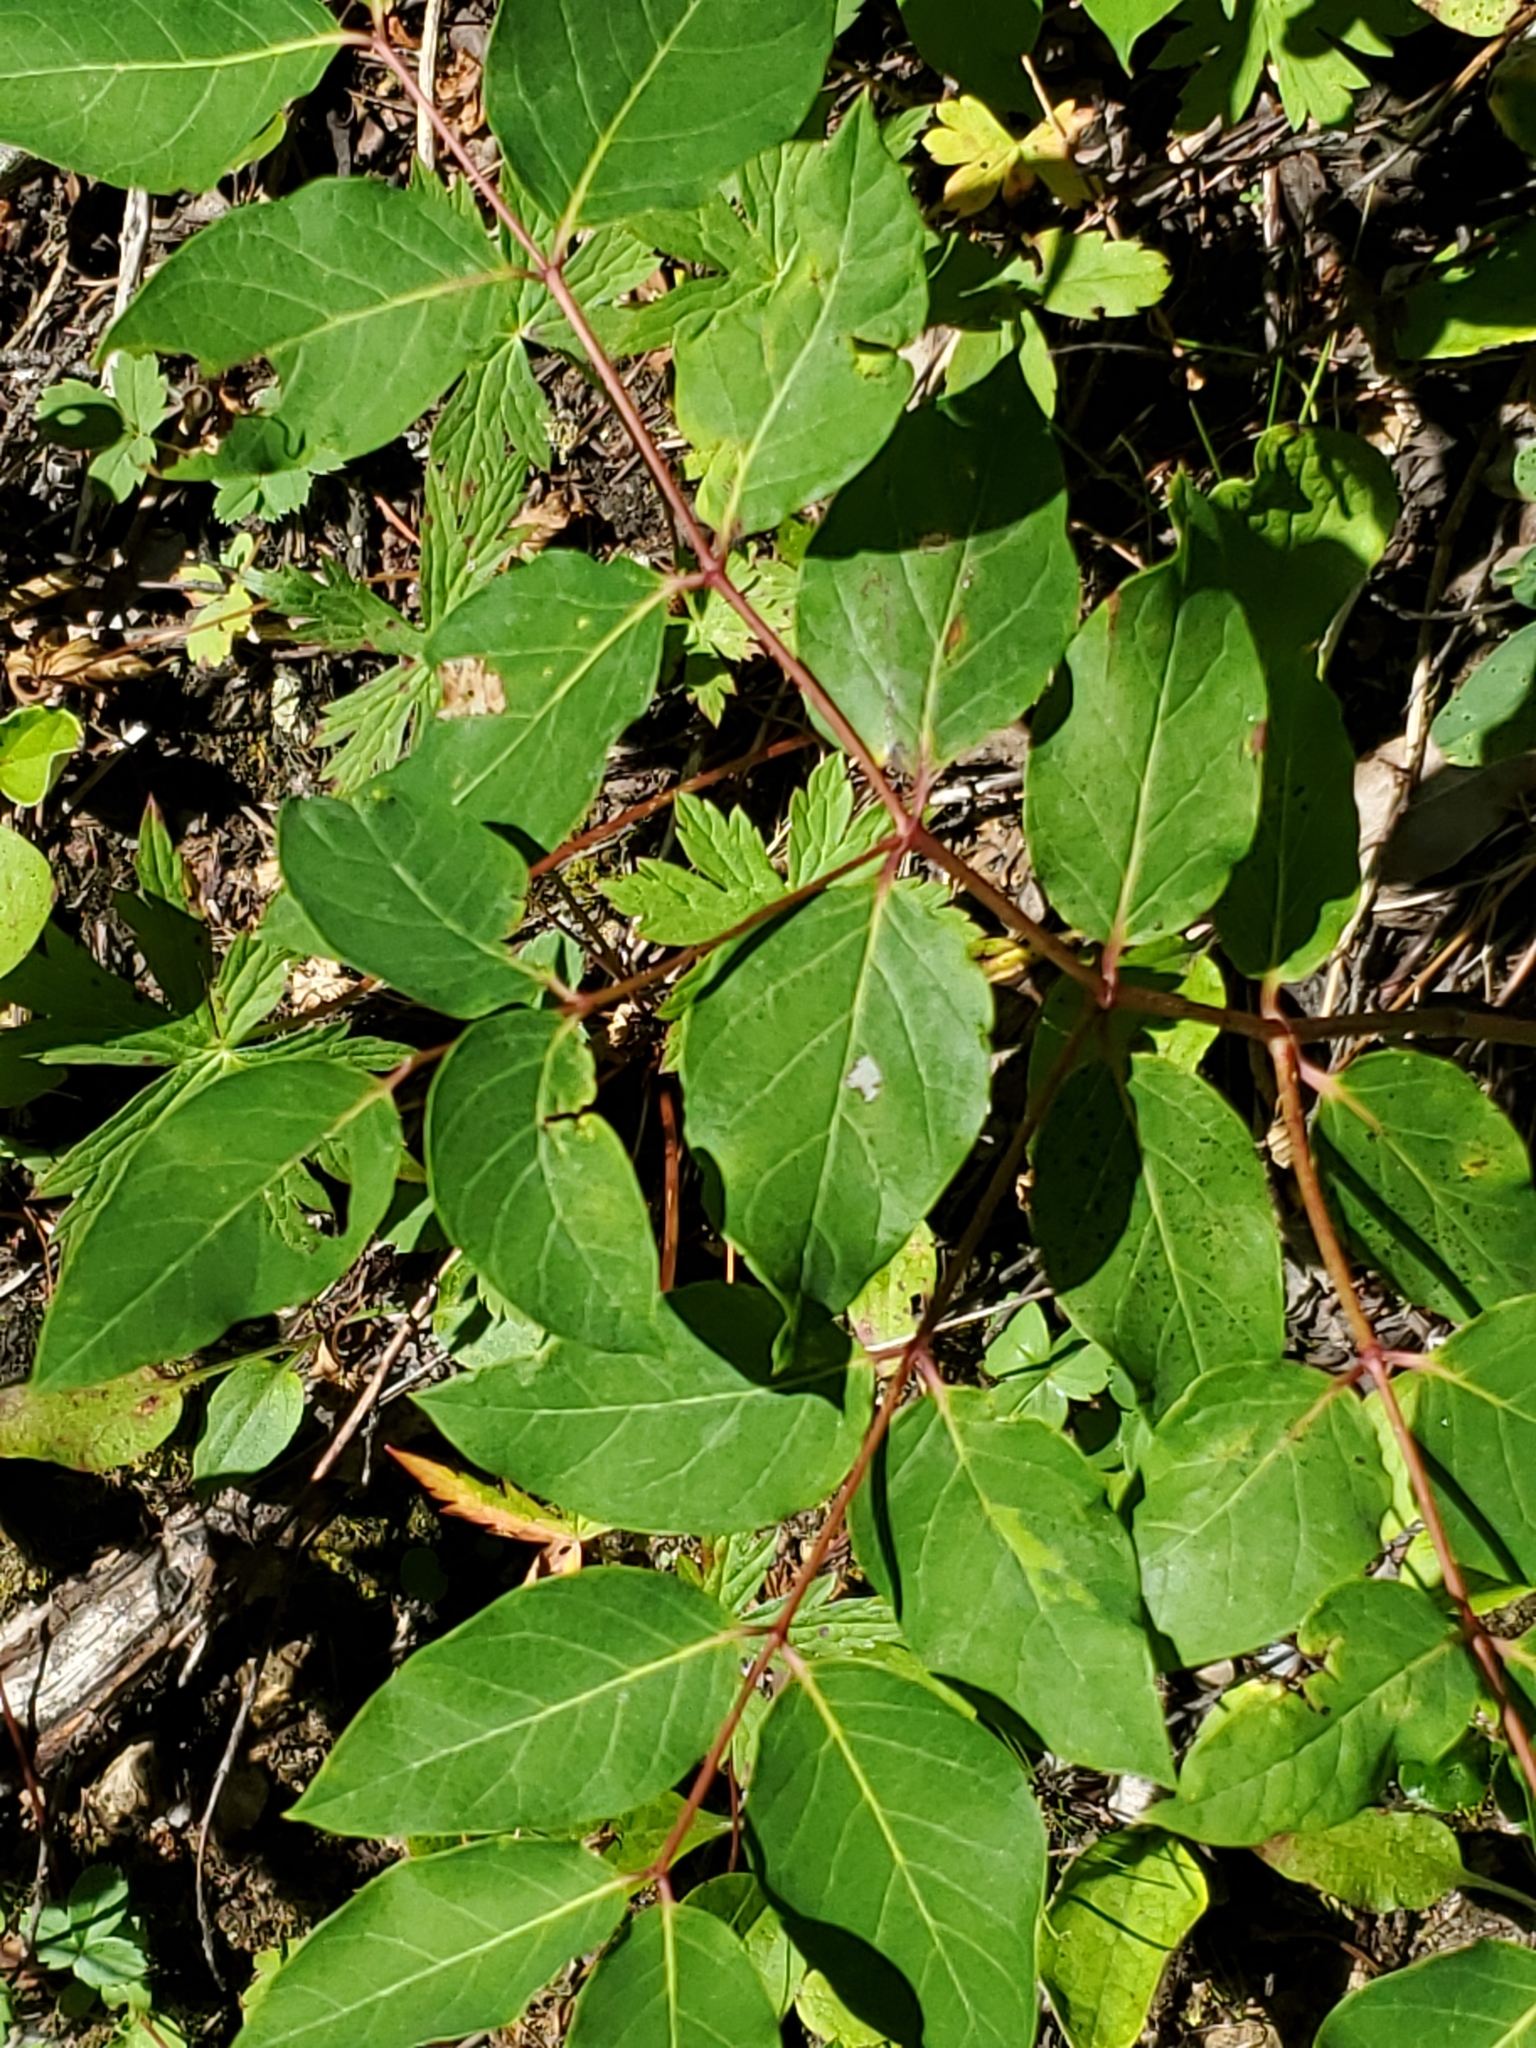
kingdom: Plantae
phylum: Tracheophyta
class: Magnoliopsida
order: Gentianales
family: Apocynaceae
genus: Apocynum
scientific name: Apocynum androsaemifolium
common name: Spreading dogbane
